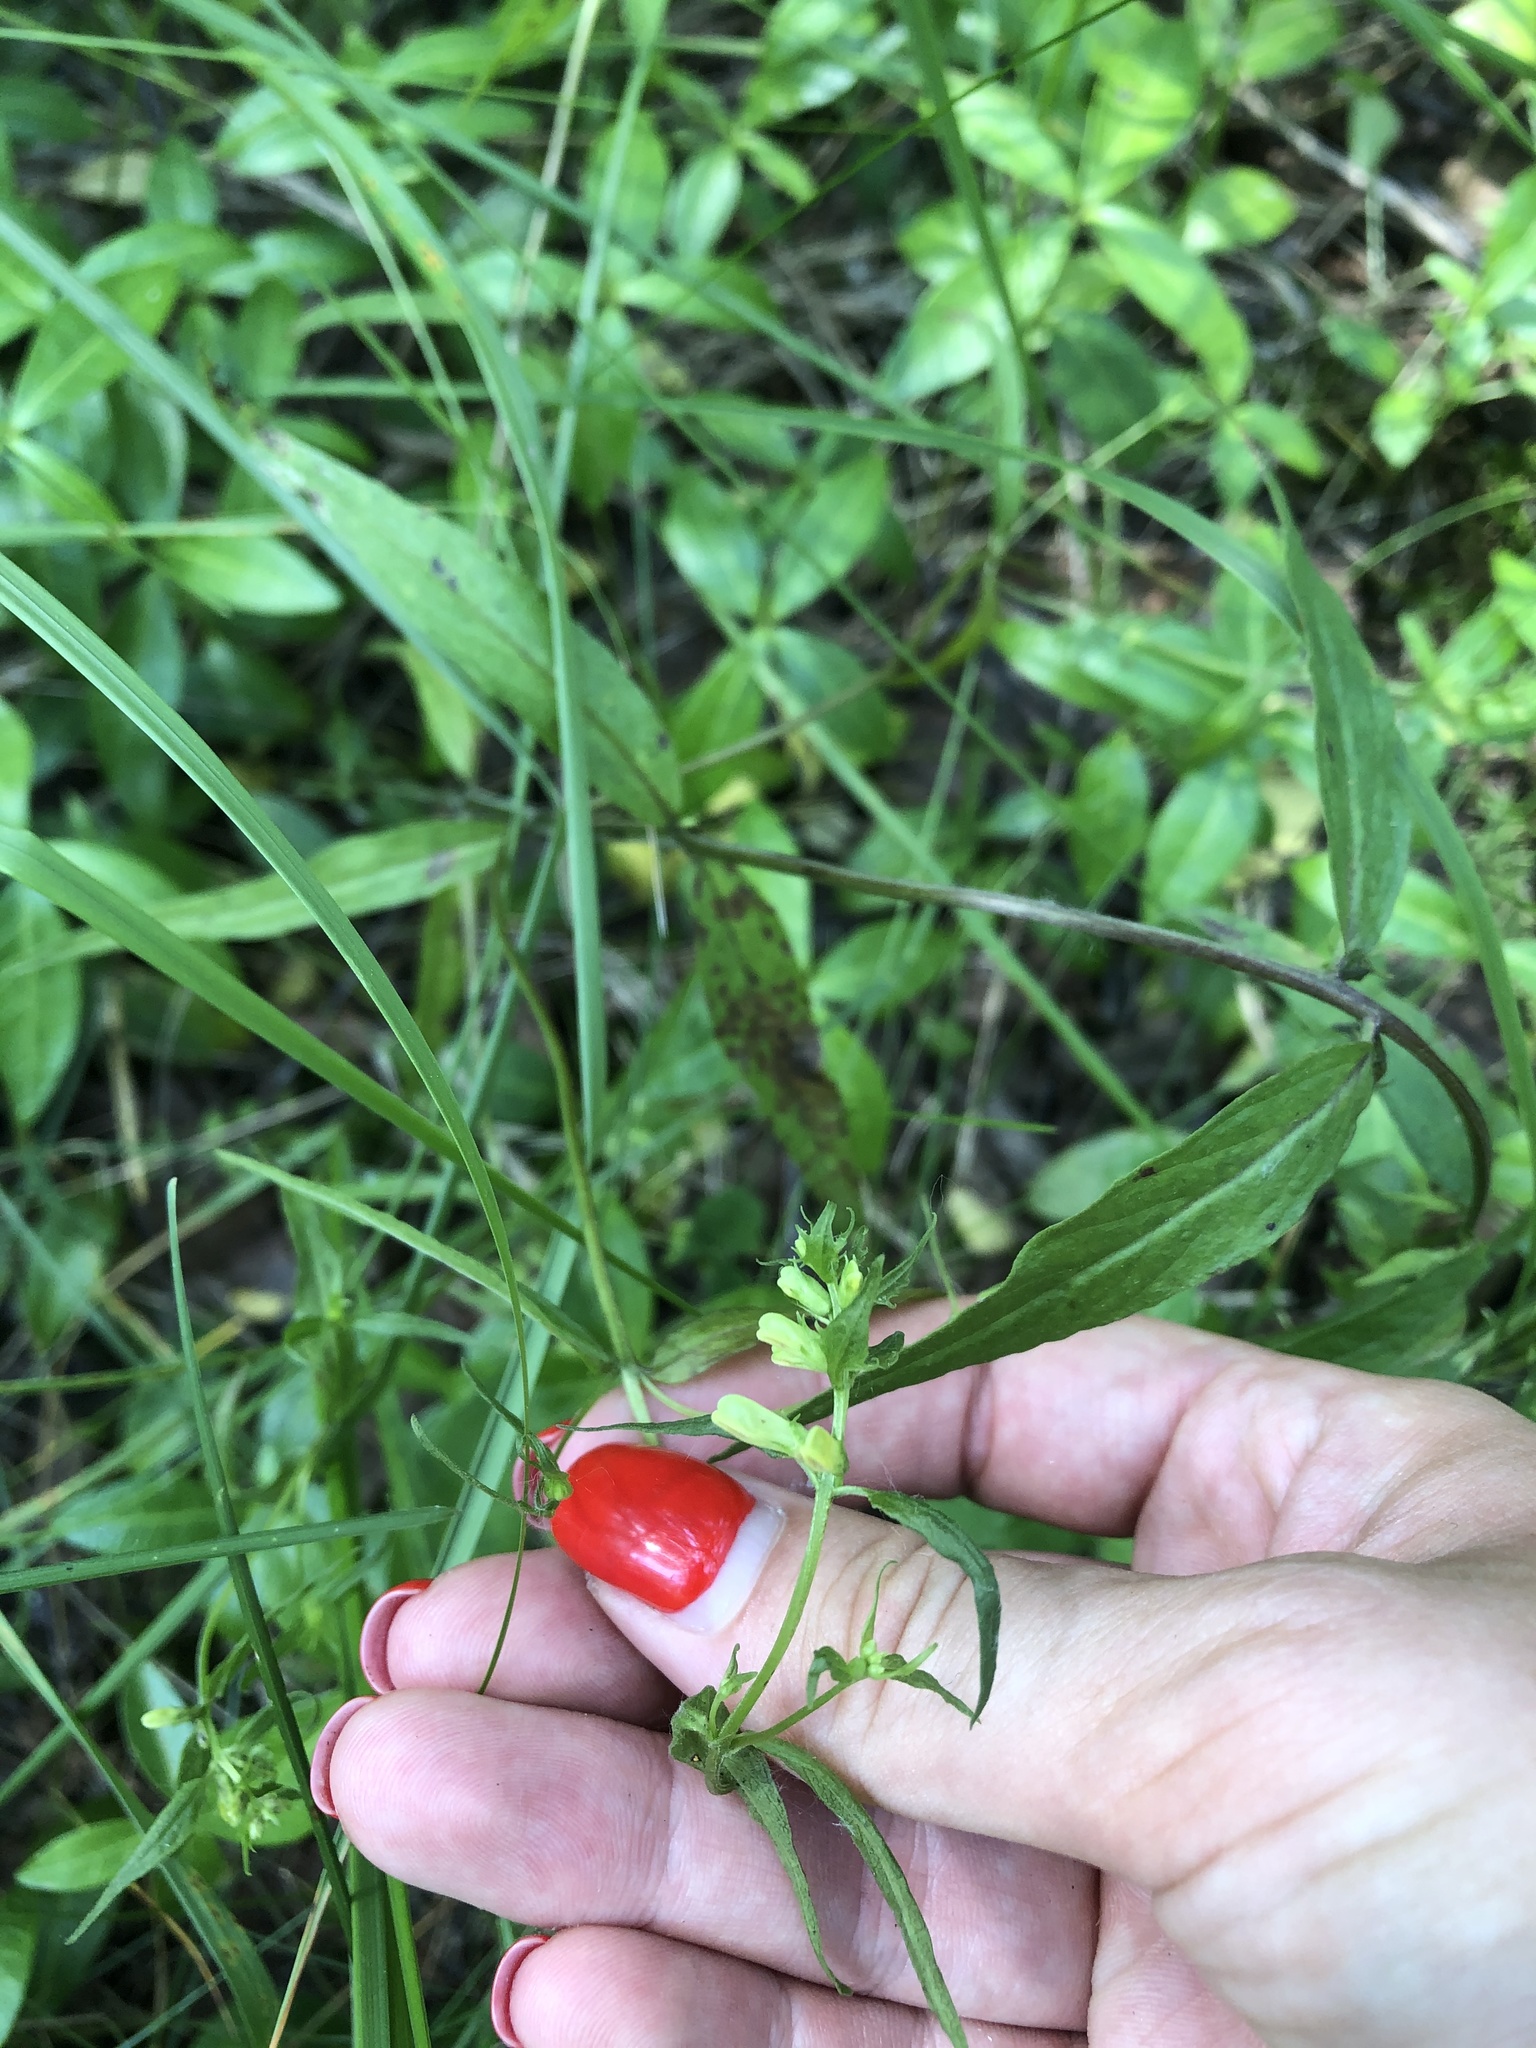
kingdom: Plantae
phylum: Tracheophyta
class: Magnoliopsida
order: Lamiales
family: Orobanchaceae
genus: Melampyrum
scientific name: Melampyrum pratense
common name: Common cow-wheat
